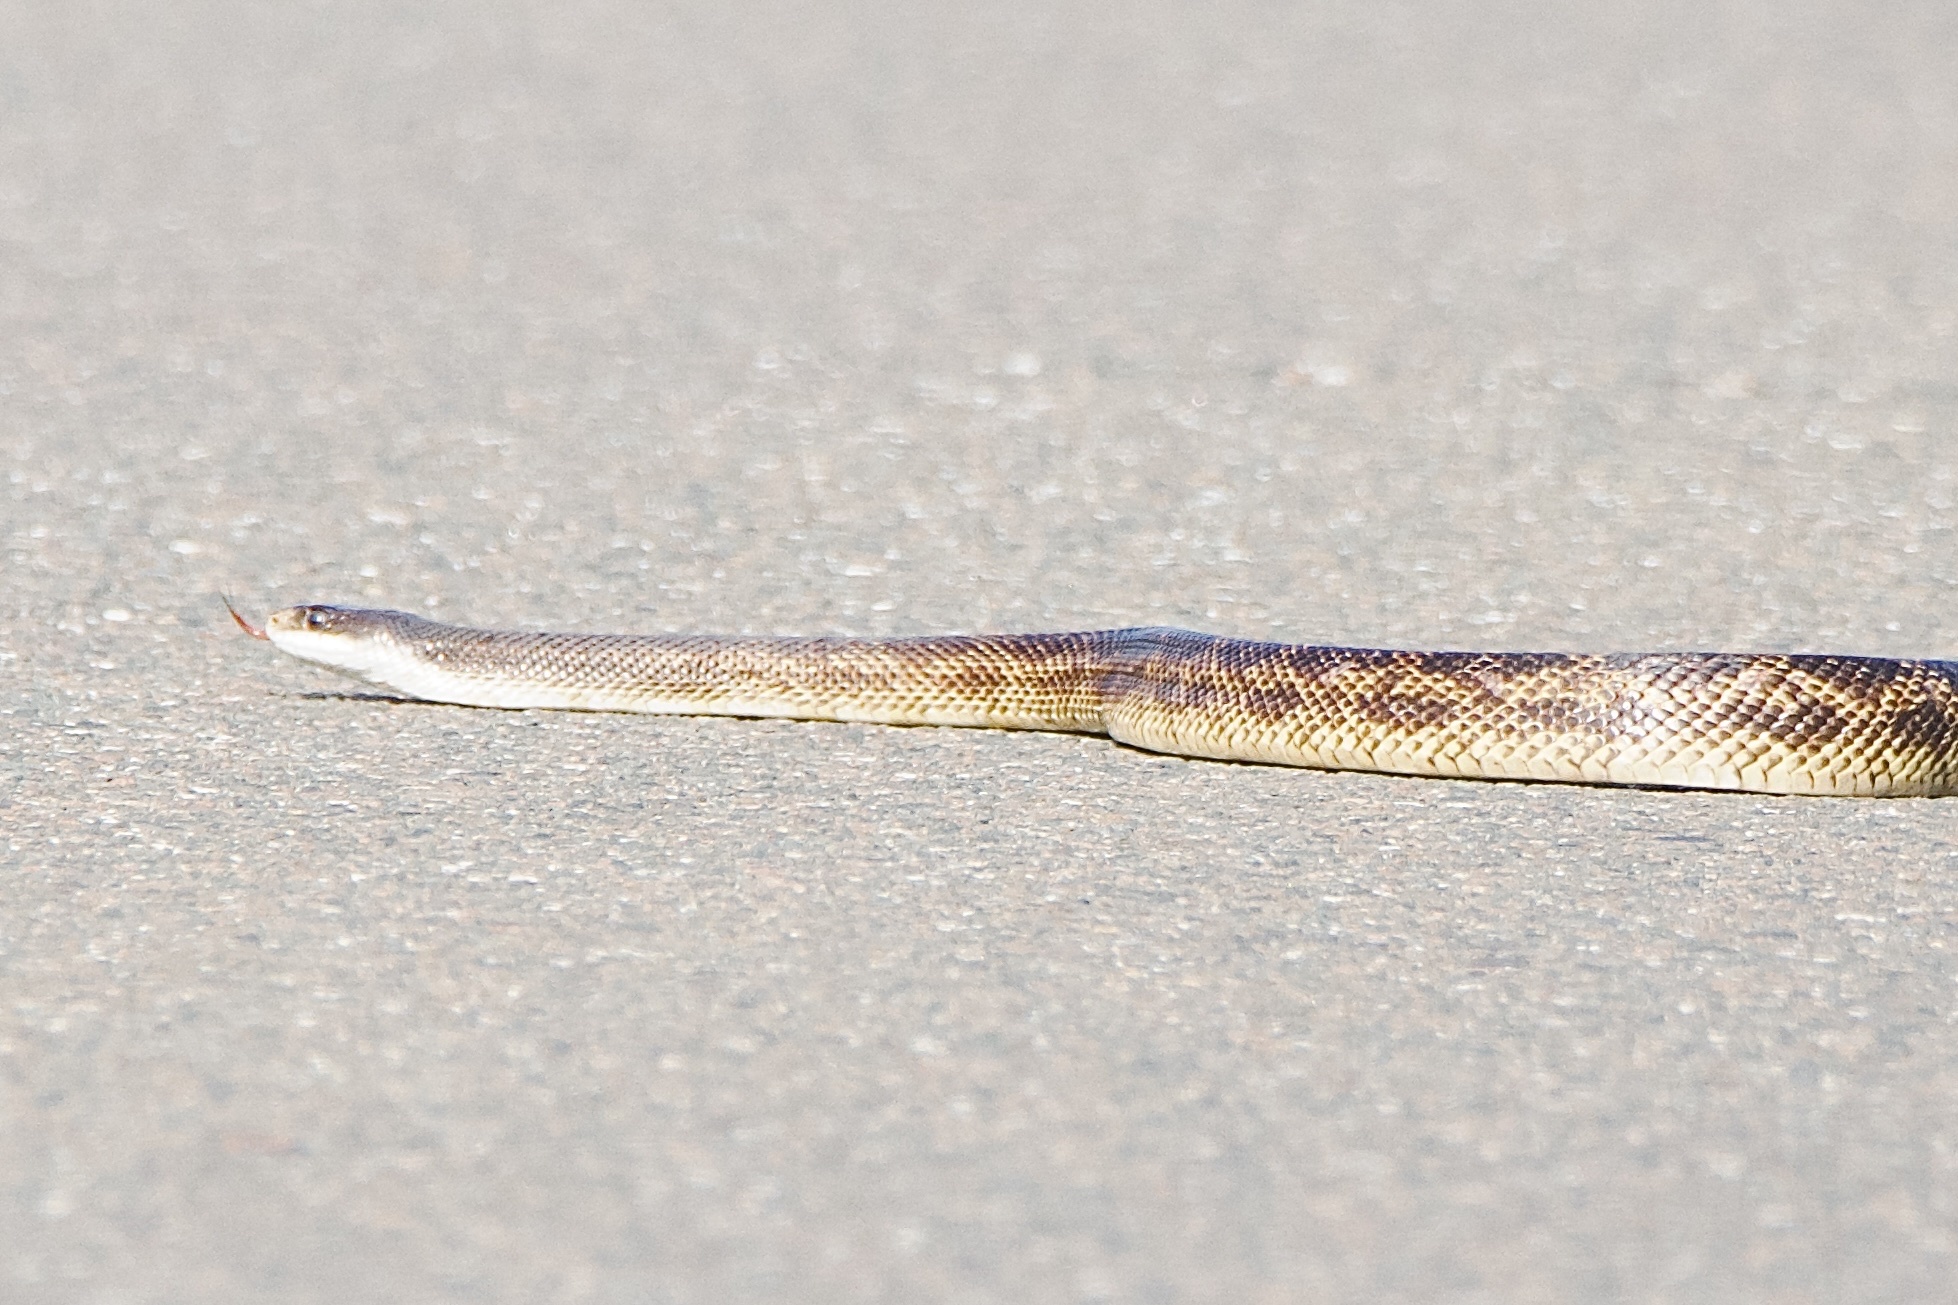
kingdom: Animalia
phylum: Chordata
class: Squamata
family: Colubridae
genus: Pantherophis
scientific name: Pantherophis obsoletus
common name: Black rat snake
